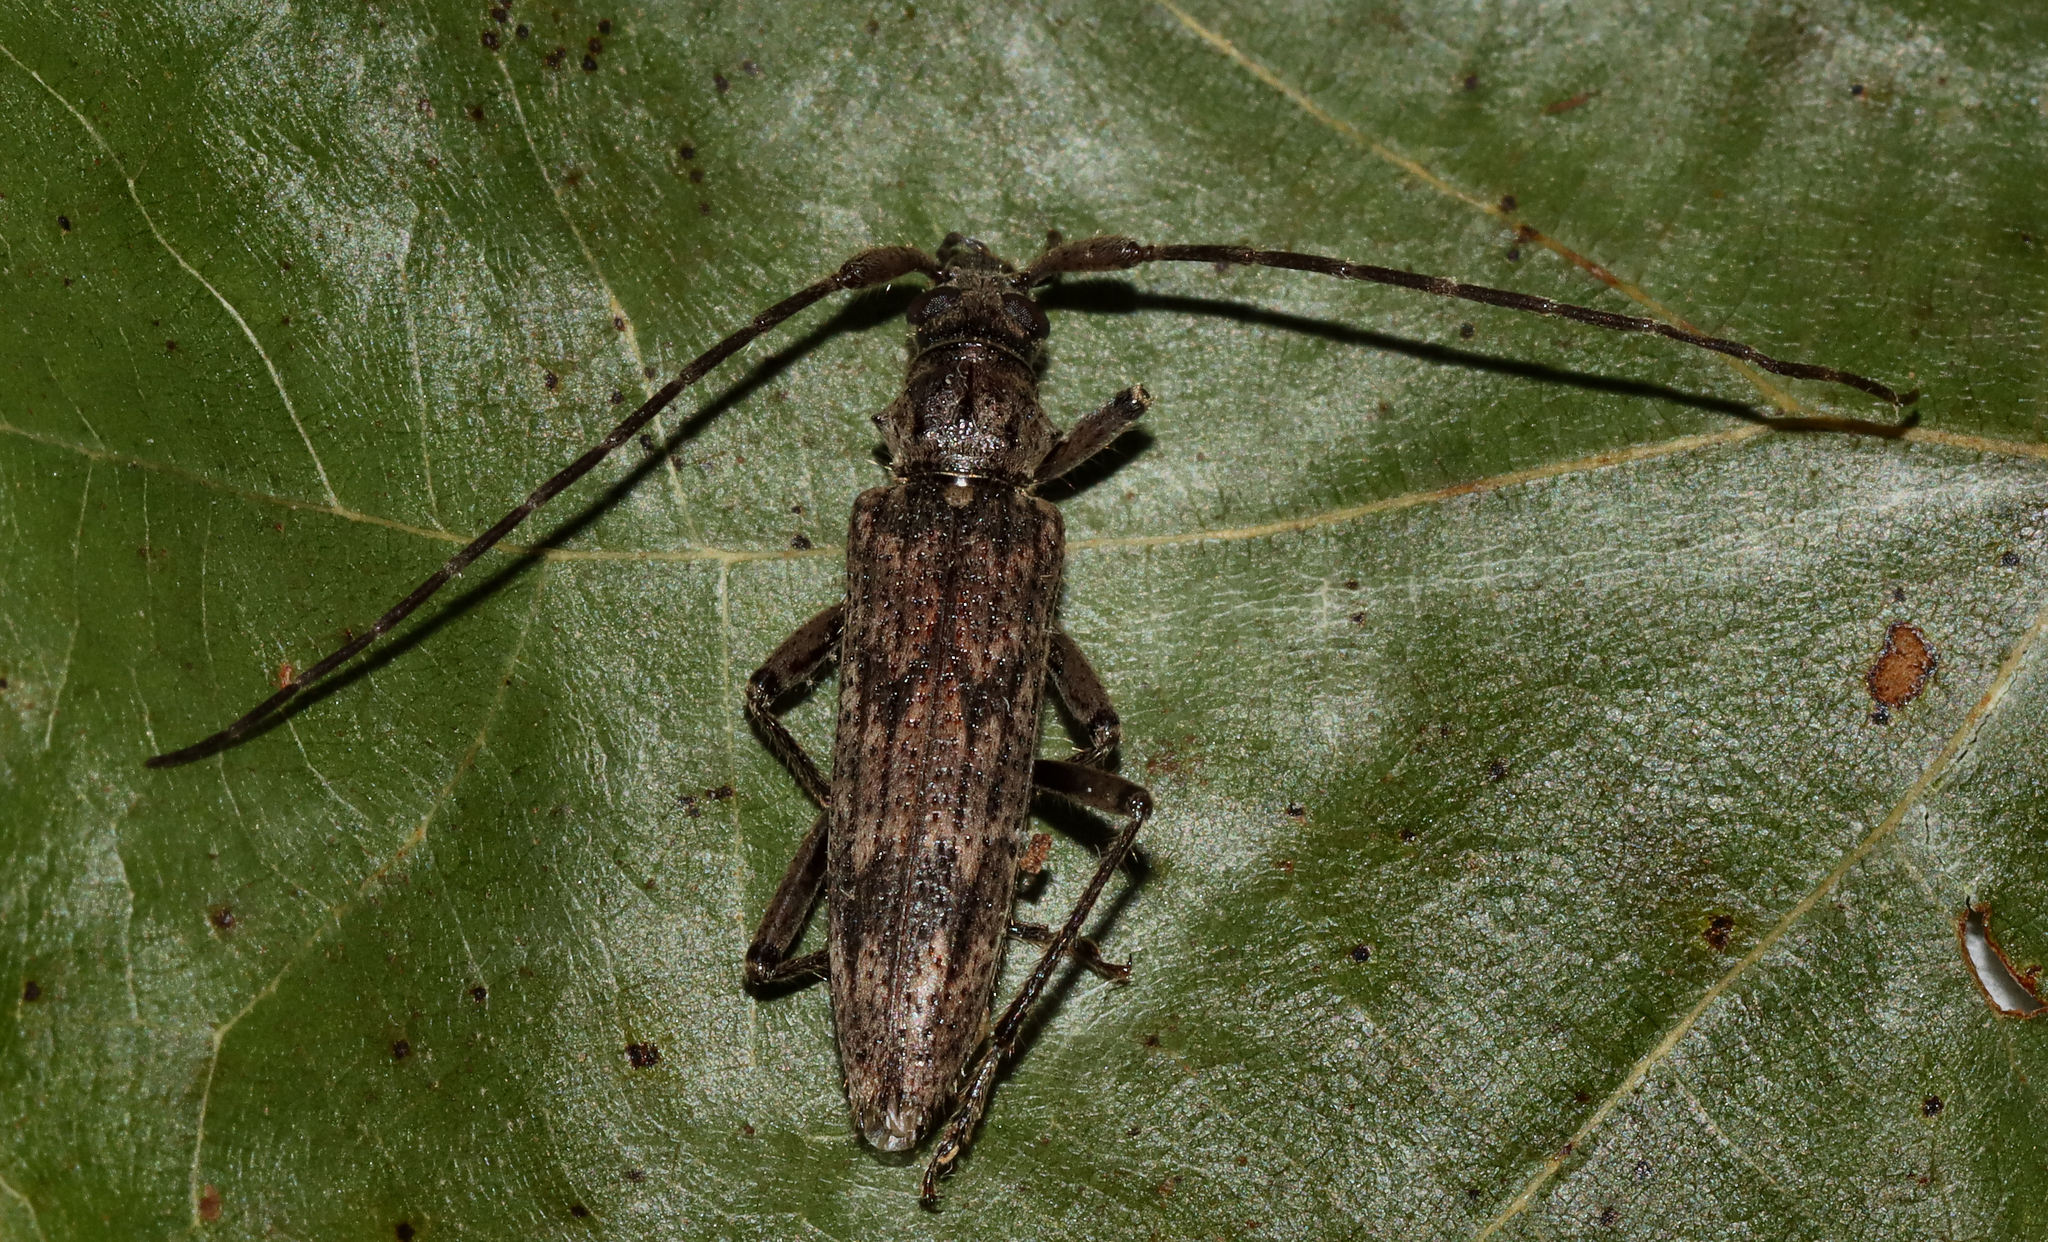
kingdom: Animalia
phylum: Arthropoda
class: Insecta
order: Coleoptera
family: Cerambycidae
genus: Elytrimitatrix
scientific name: Elytrimitatrix undata
